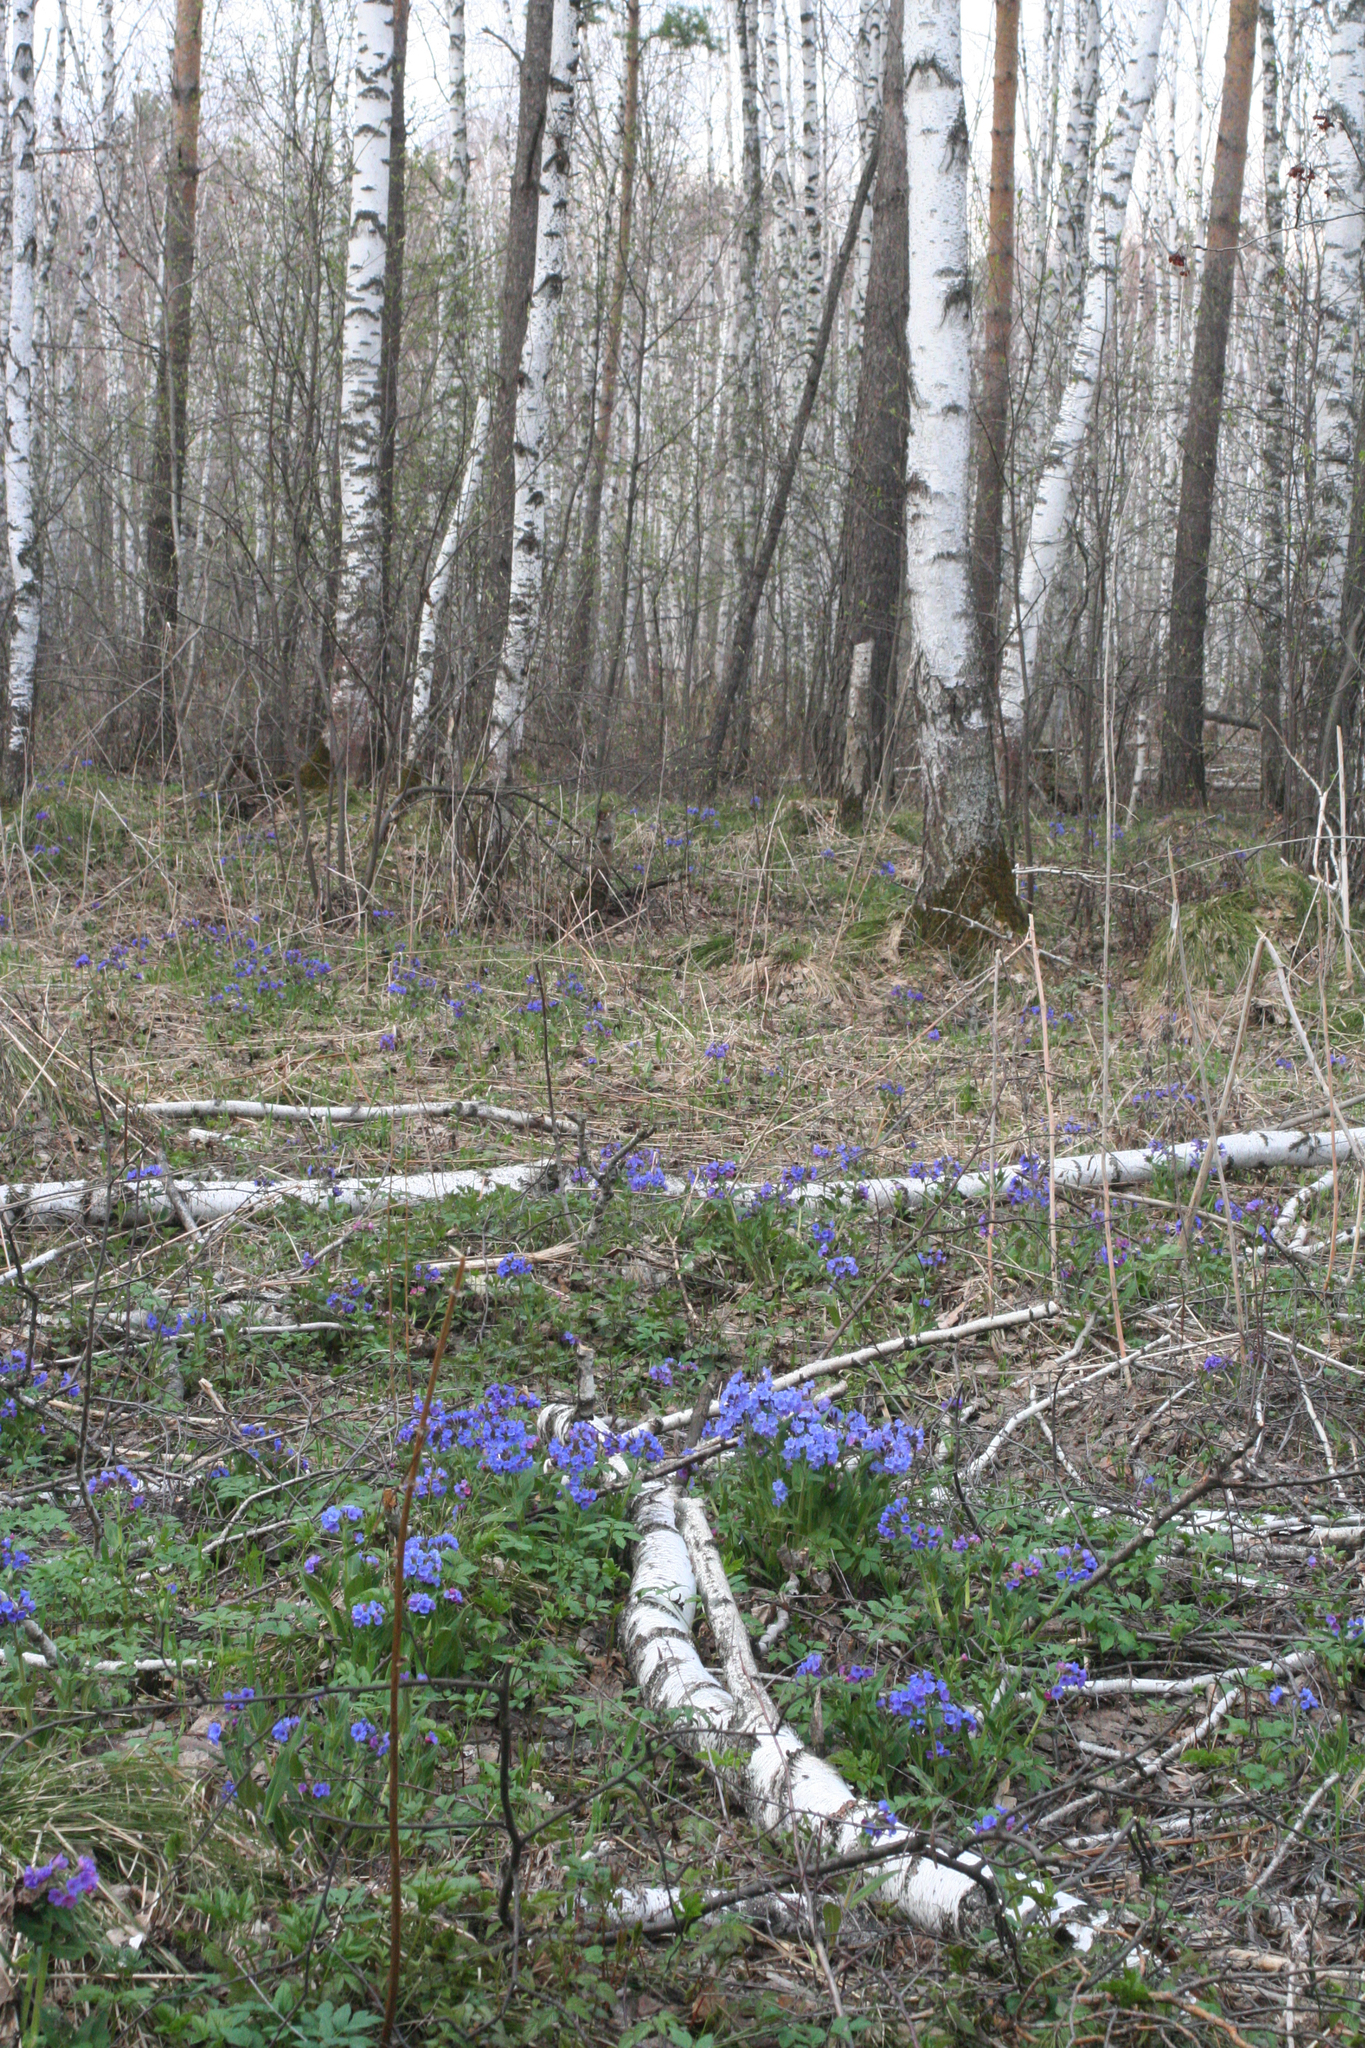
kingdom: Plantae
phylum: Tracheophyta
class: Magnoliopsida
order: Boraginales
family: Boraginaceae
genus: Pulmonaria
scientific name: Pulmonaria mollis
